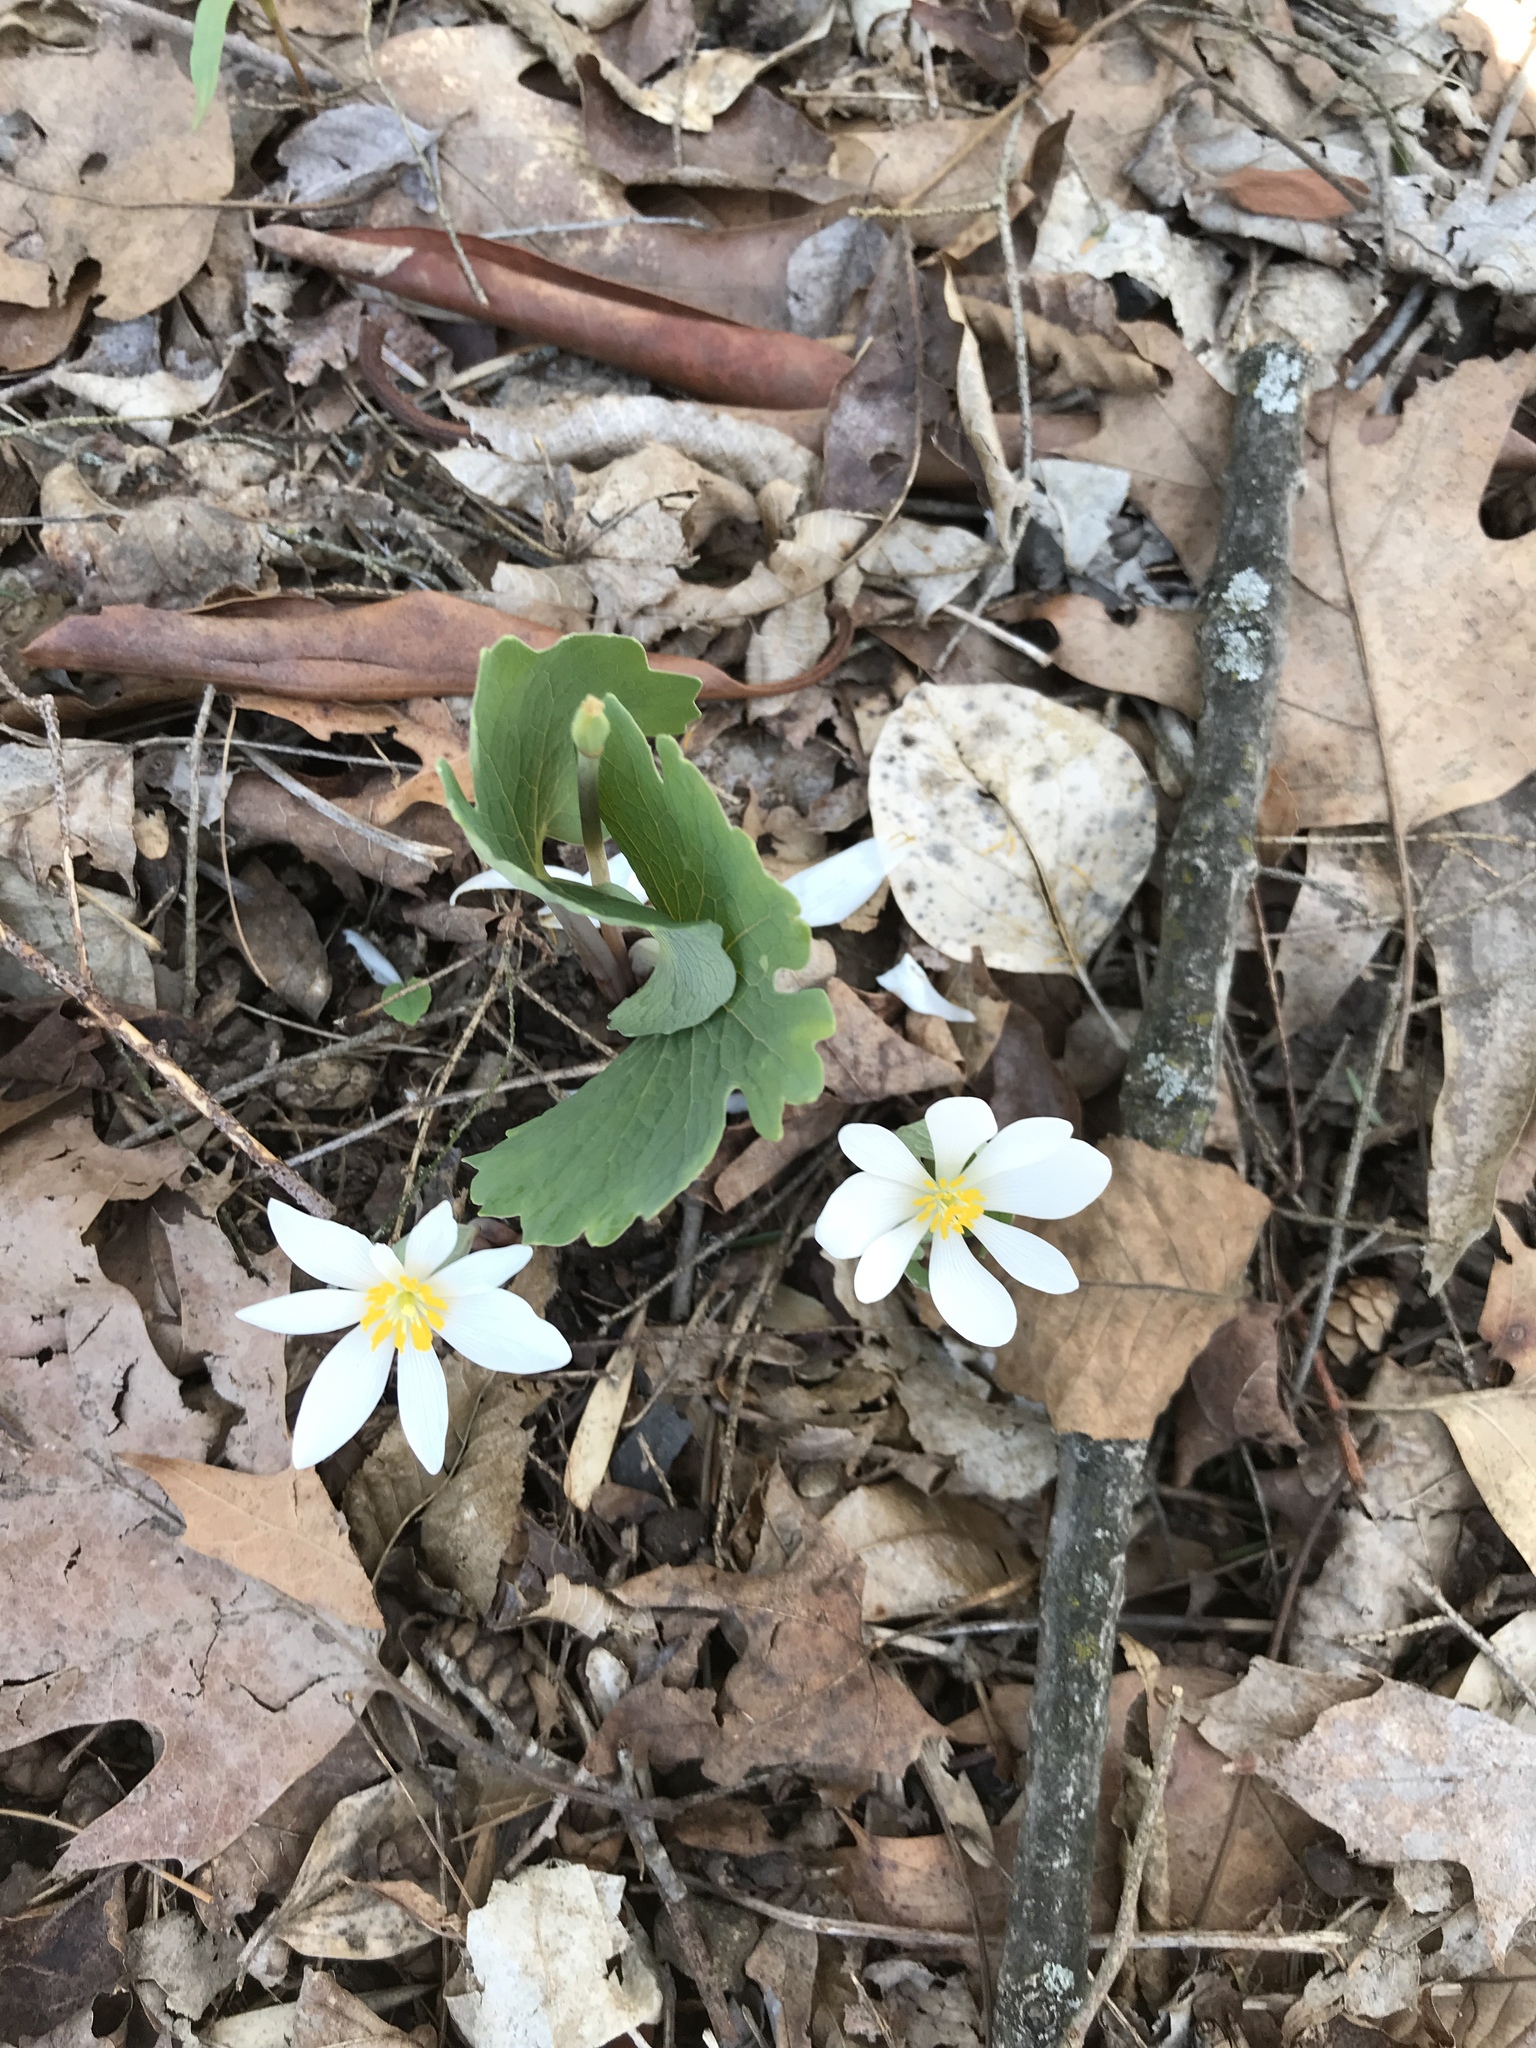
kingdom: Plantae
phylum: Tracheophyta
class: Magnoliopsida
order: Ranunculales
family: Papaveraceae
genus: Sanguinaria
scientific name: Sanguinaria canadensis
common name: Bloodroot
